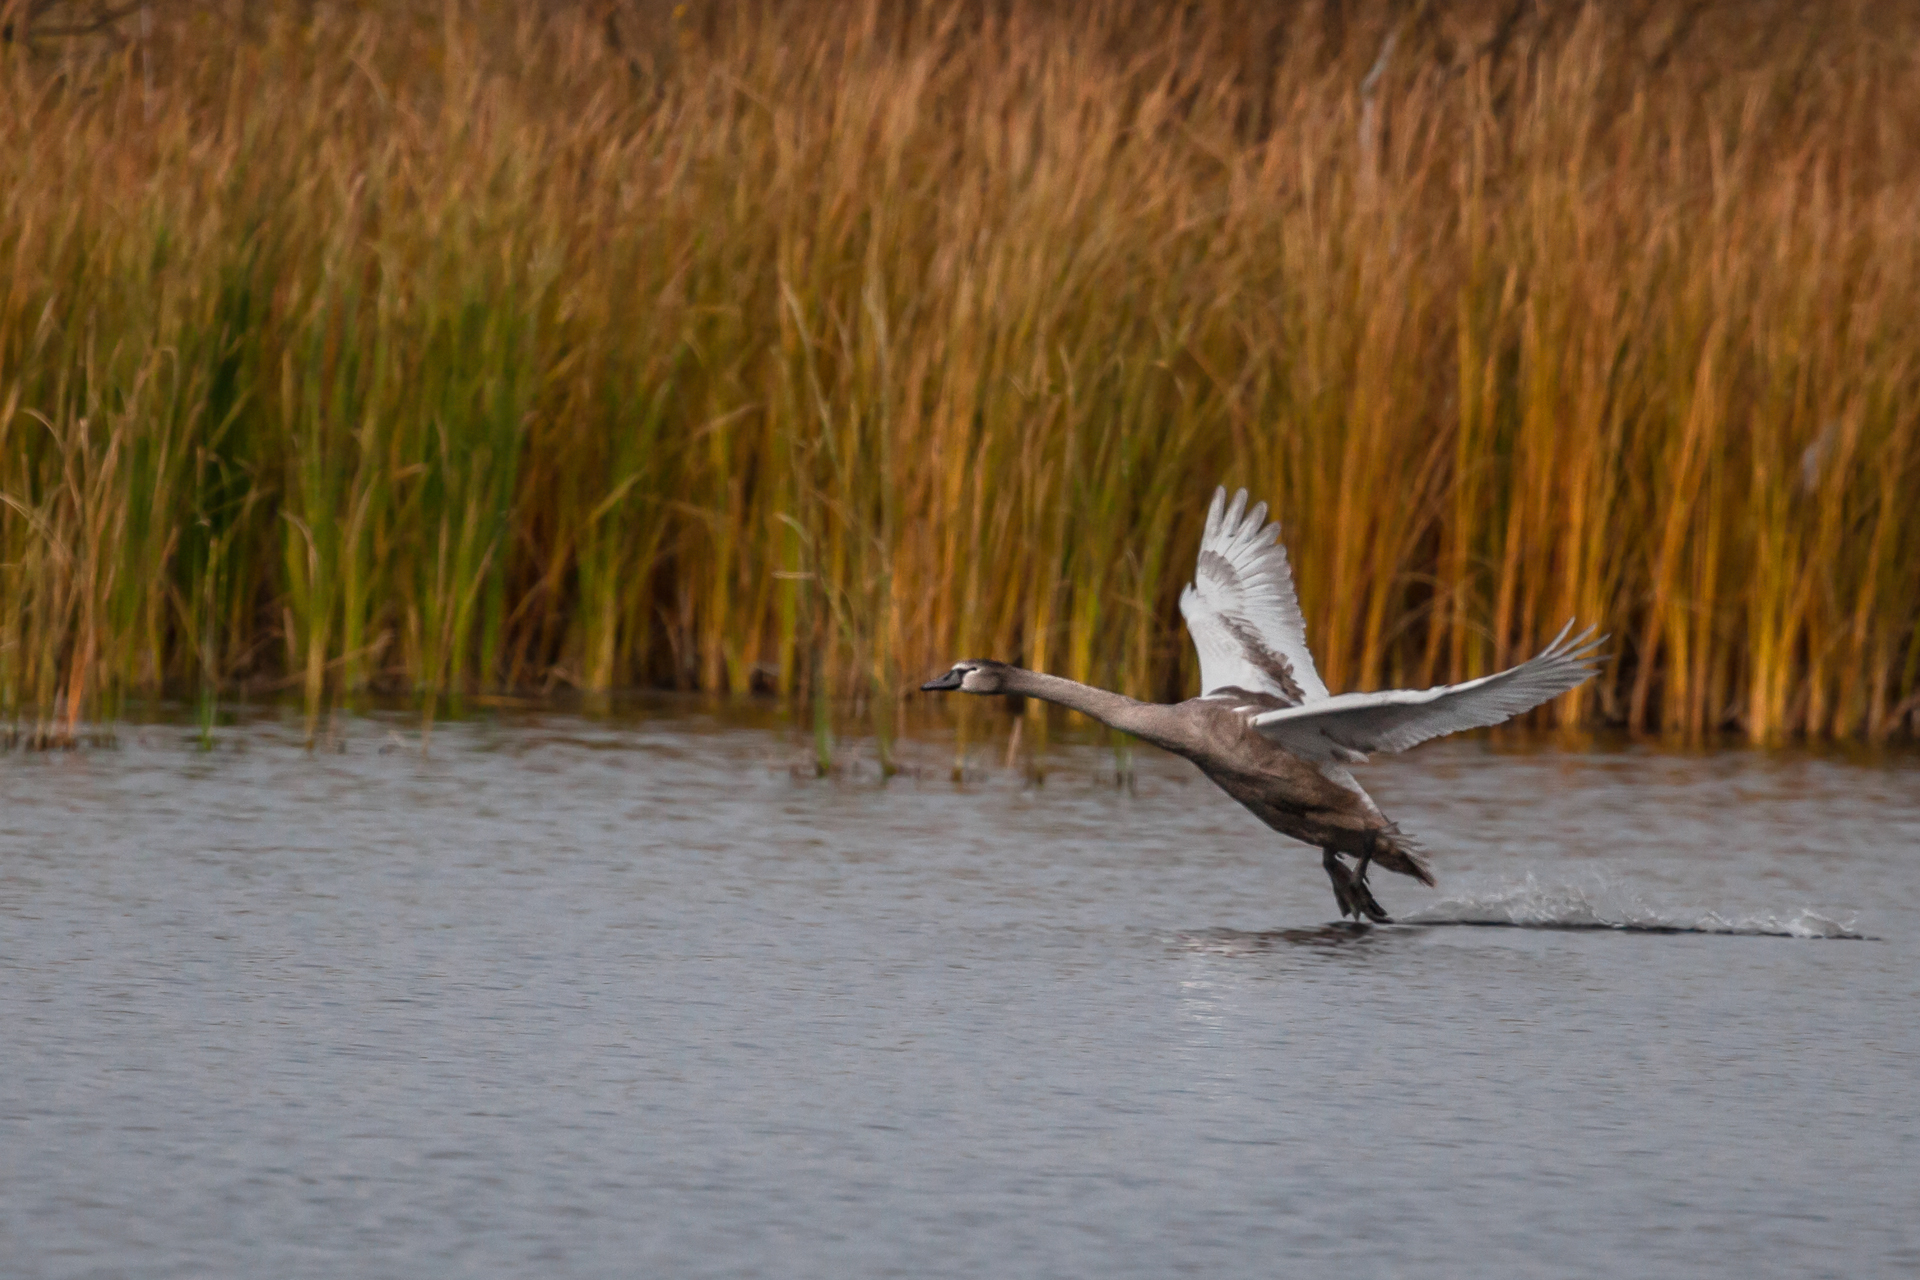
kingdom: Animalia
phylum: Chordata
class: Aves
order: Anseriformes
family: Anatidae
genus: Cygnus
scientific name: Cygnus olor
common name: Mute swan
